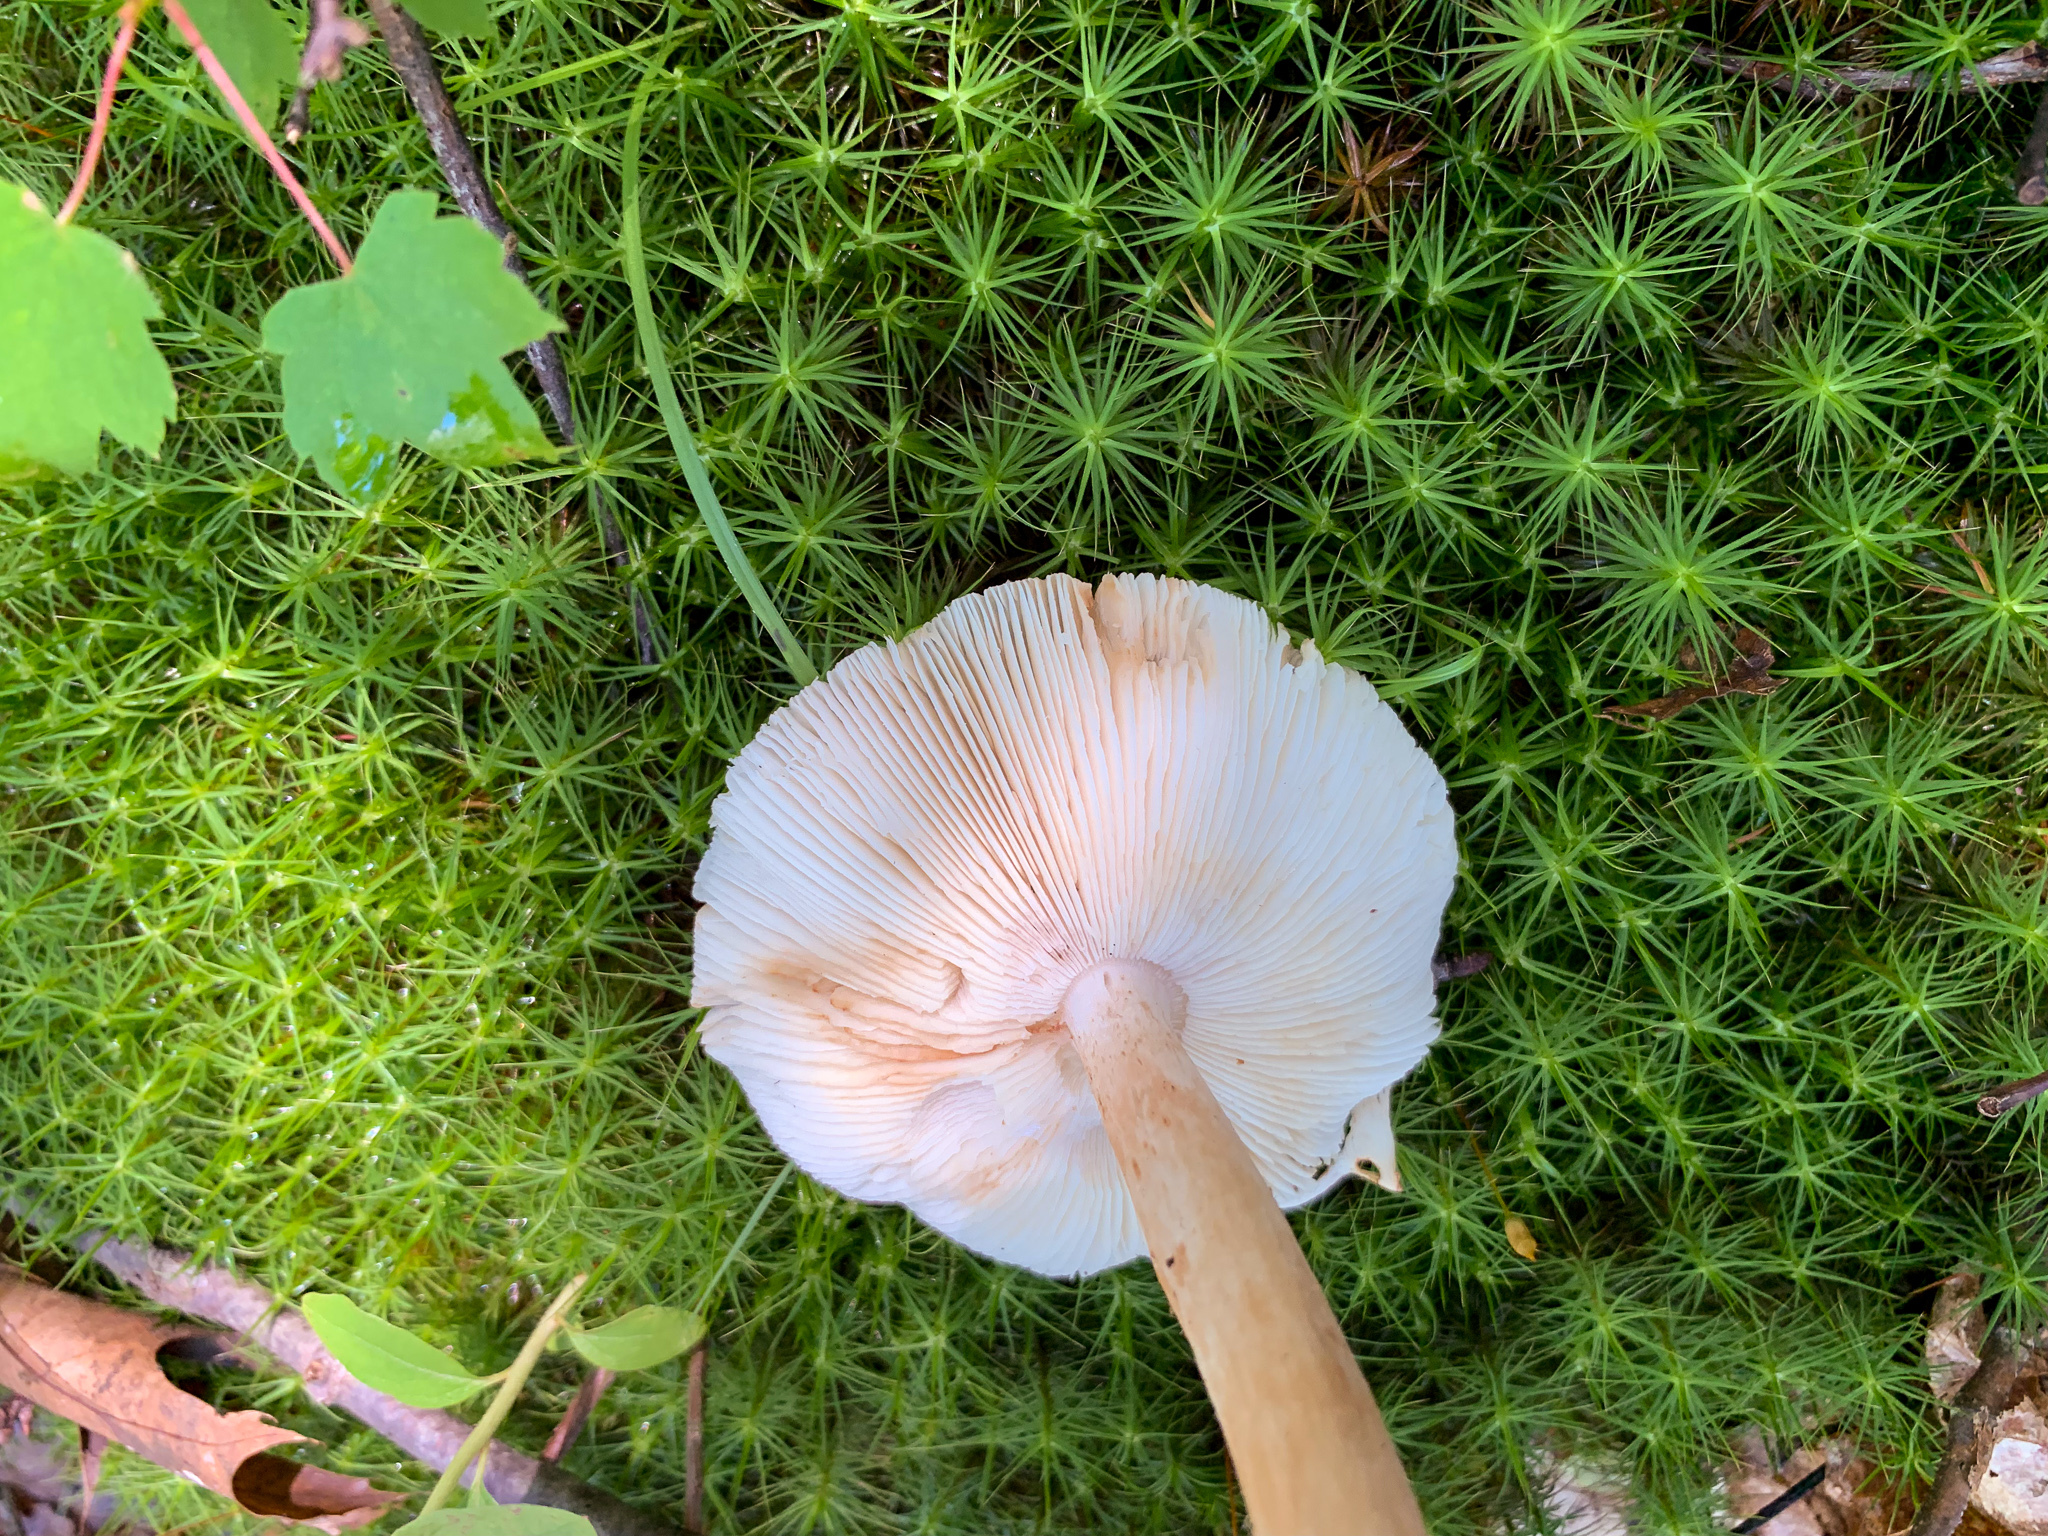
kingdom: Fungi
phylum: Basidiomycota
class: Agaricomycetes
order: Agaricales
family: Amanitaceae
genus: Amanita
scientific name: Amanita brunnescens
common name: Brown american star-footed amanita
